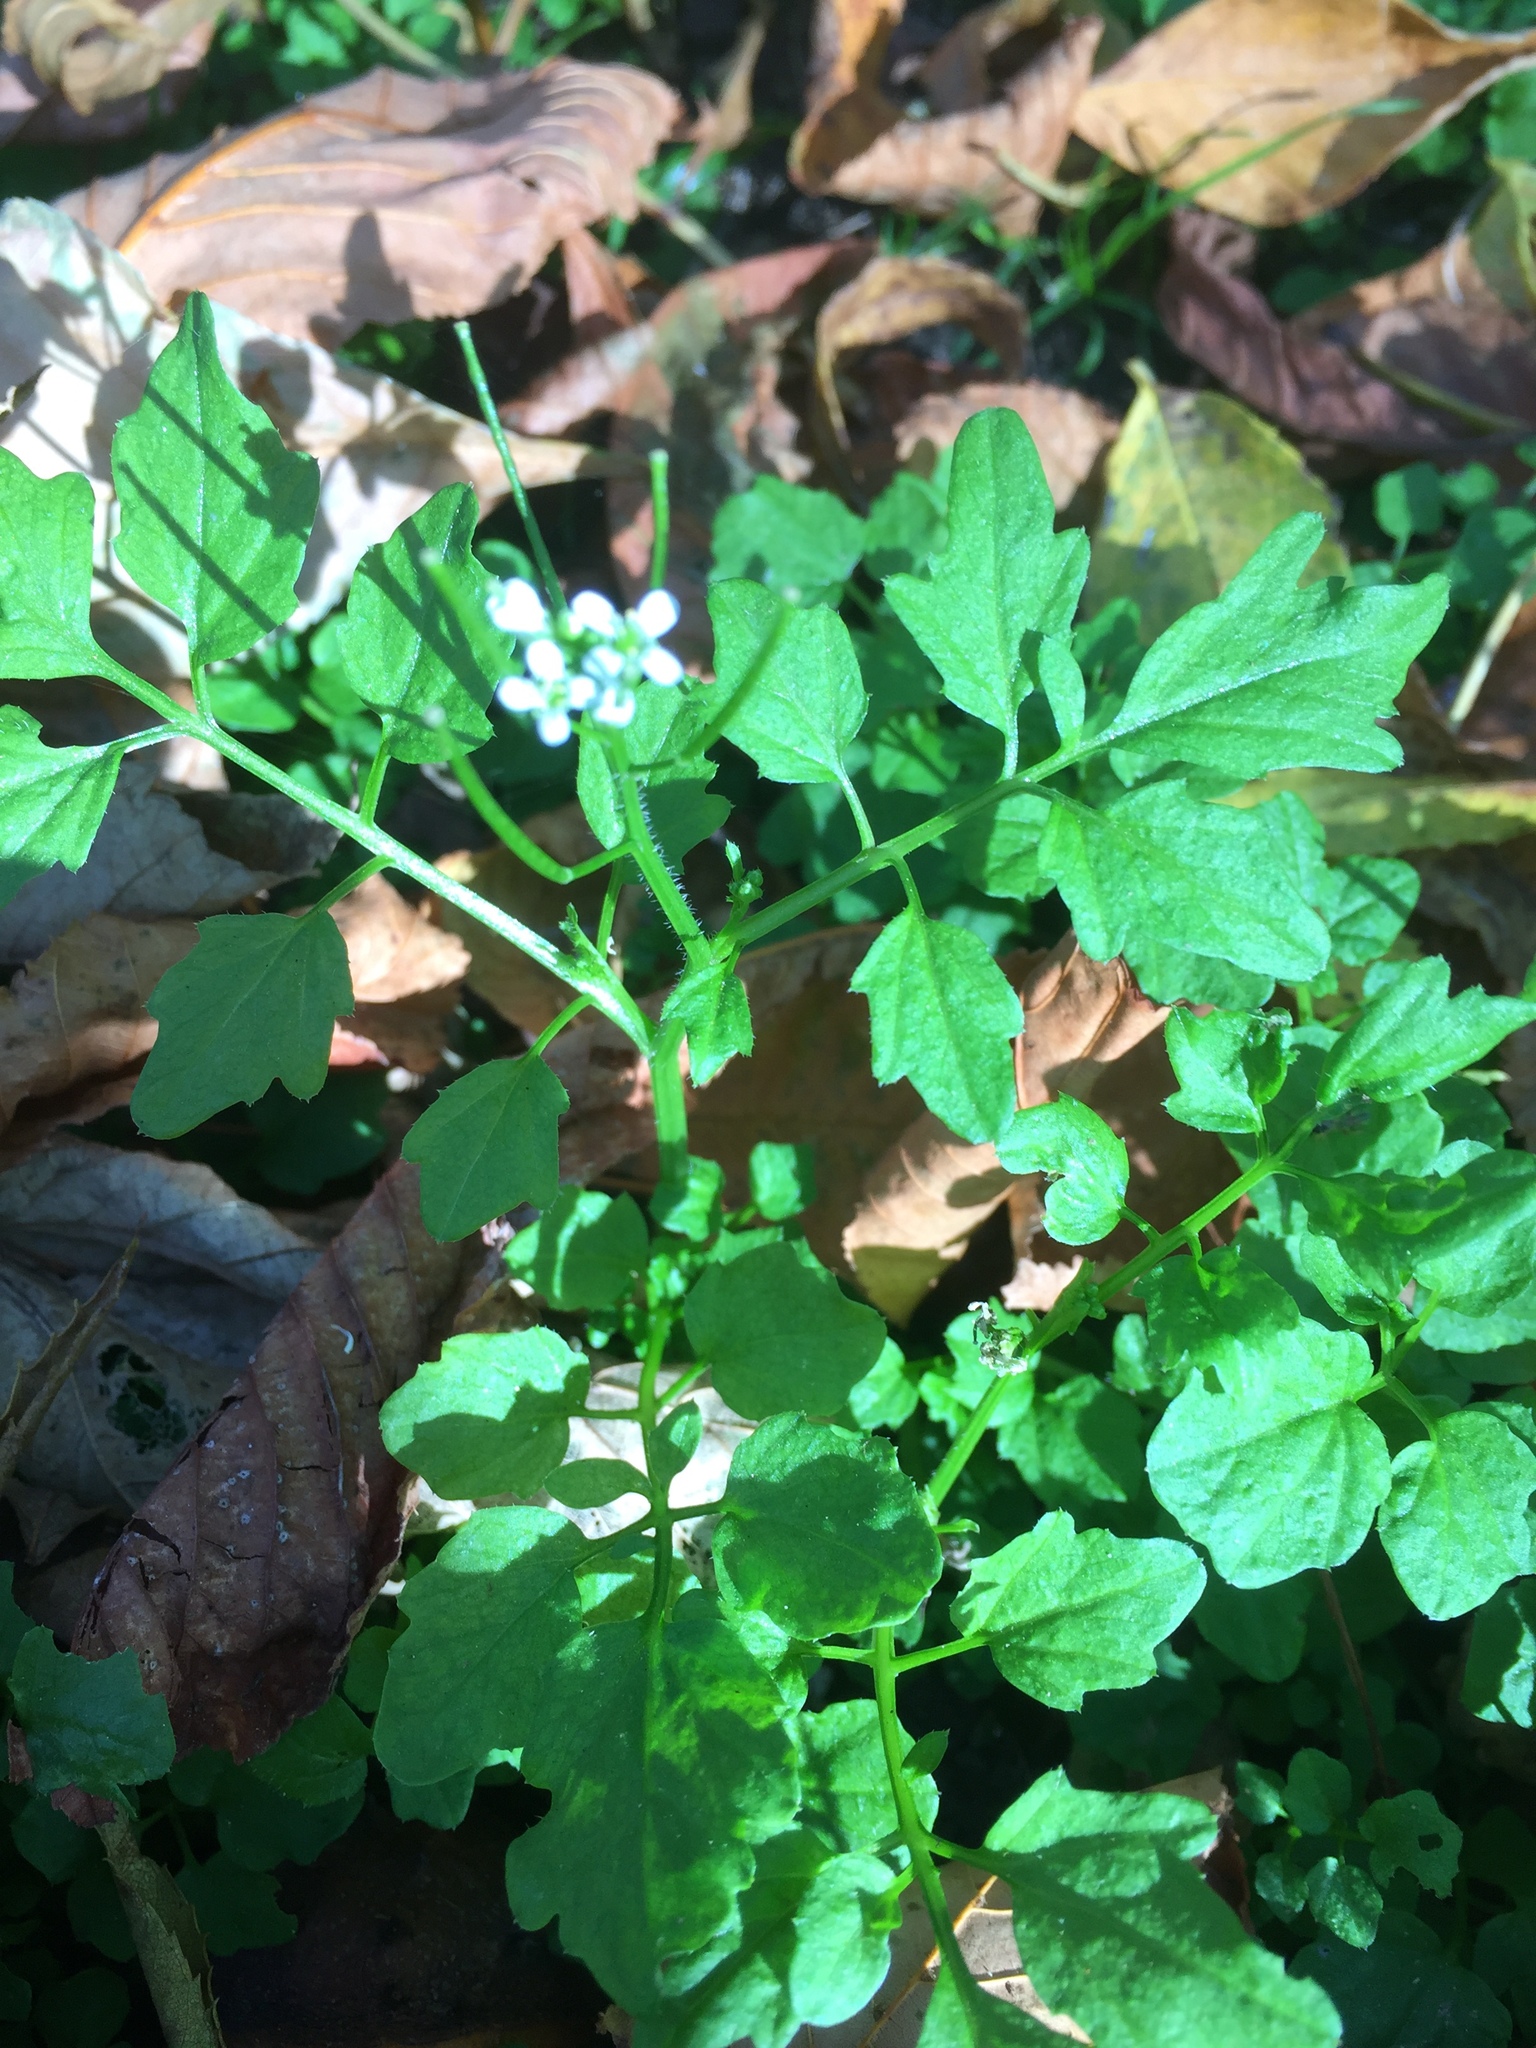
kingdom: Plantae
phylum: Tracheophyta
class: Magnoliopsida
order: Brassicales
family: Brassicaceae
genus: Cardamine
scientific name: Cardamine flexuosa
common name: Woodland bittercress
